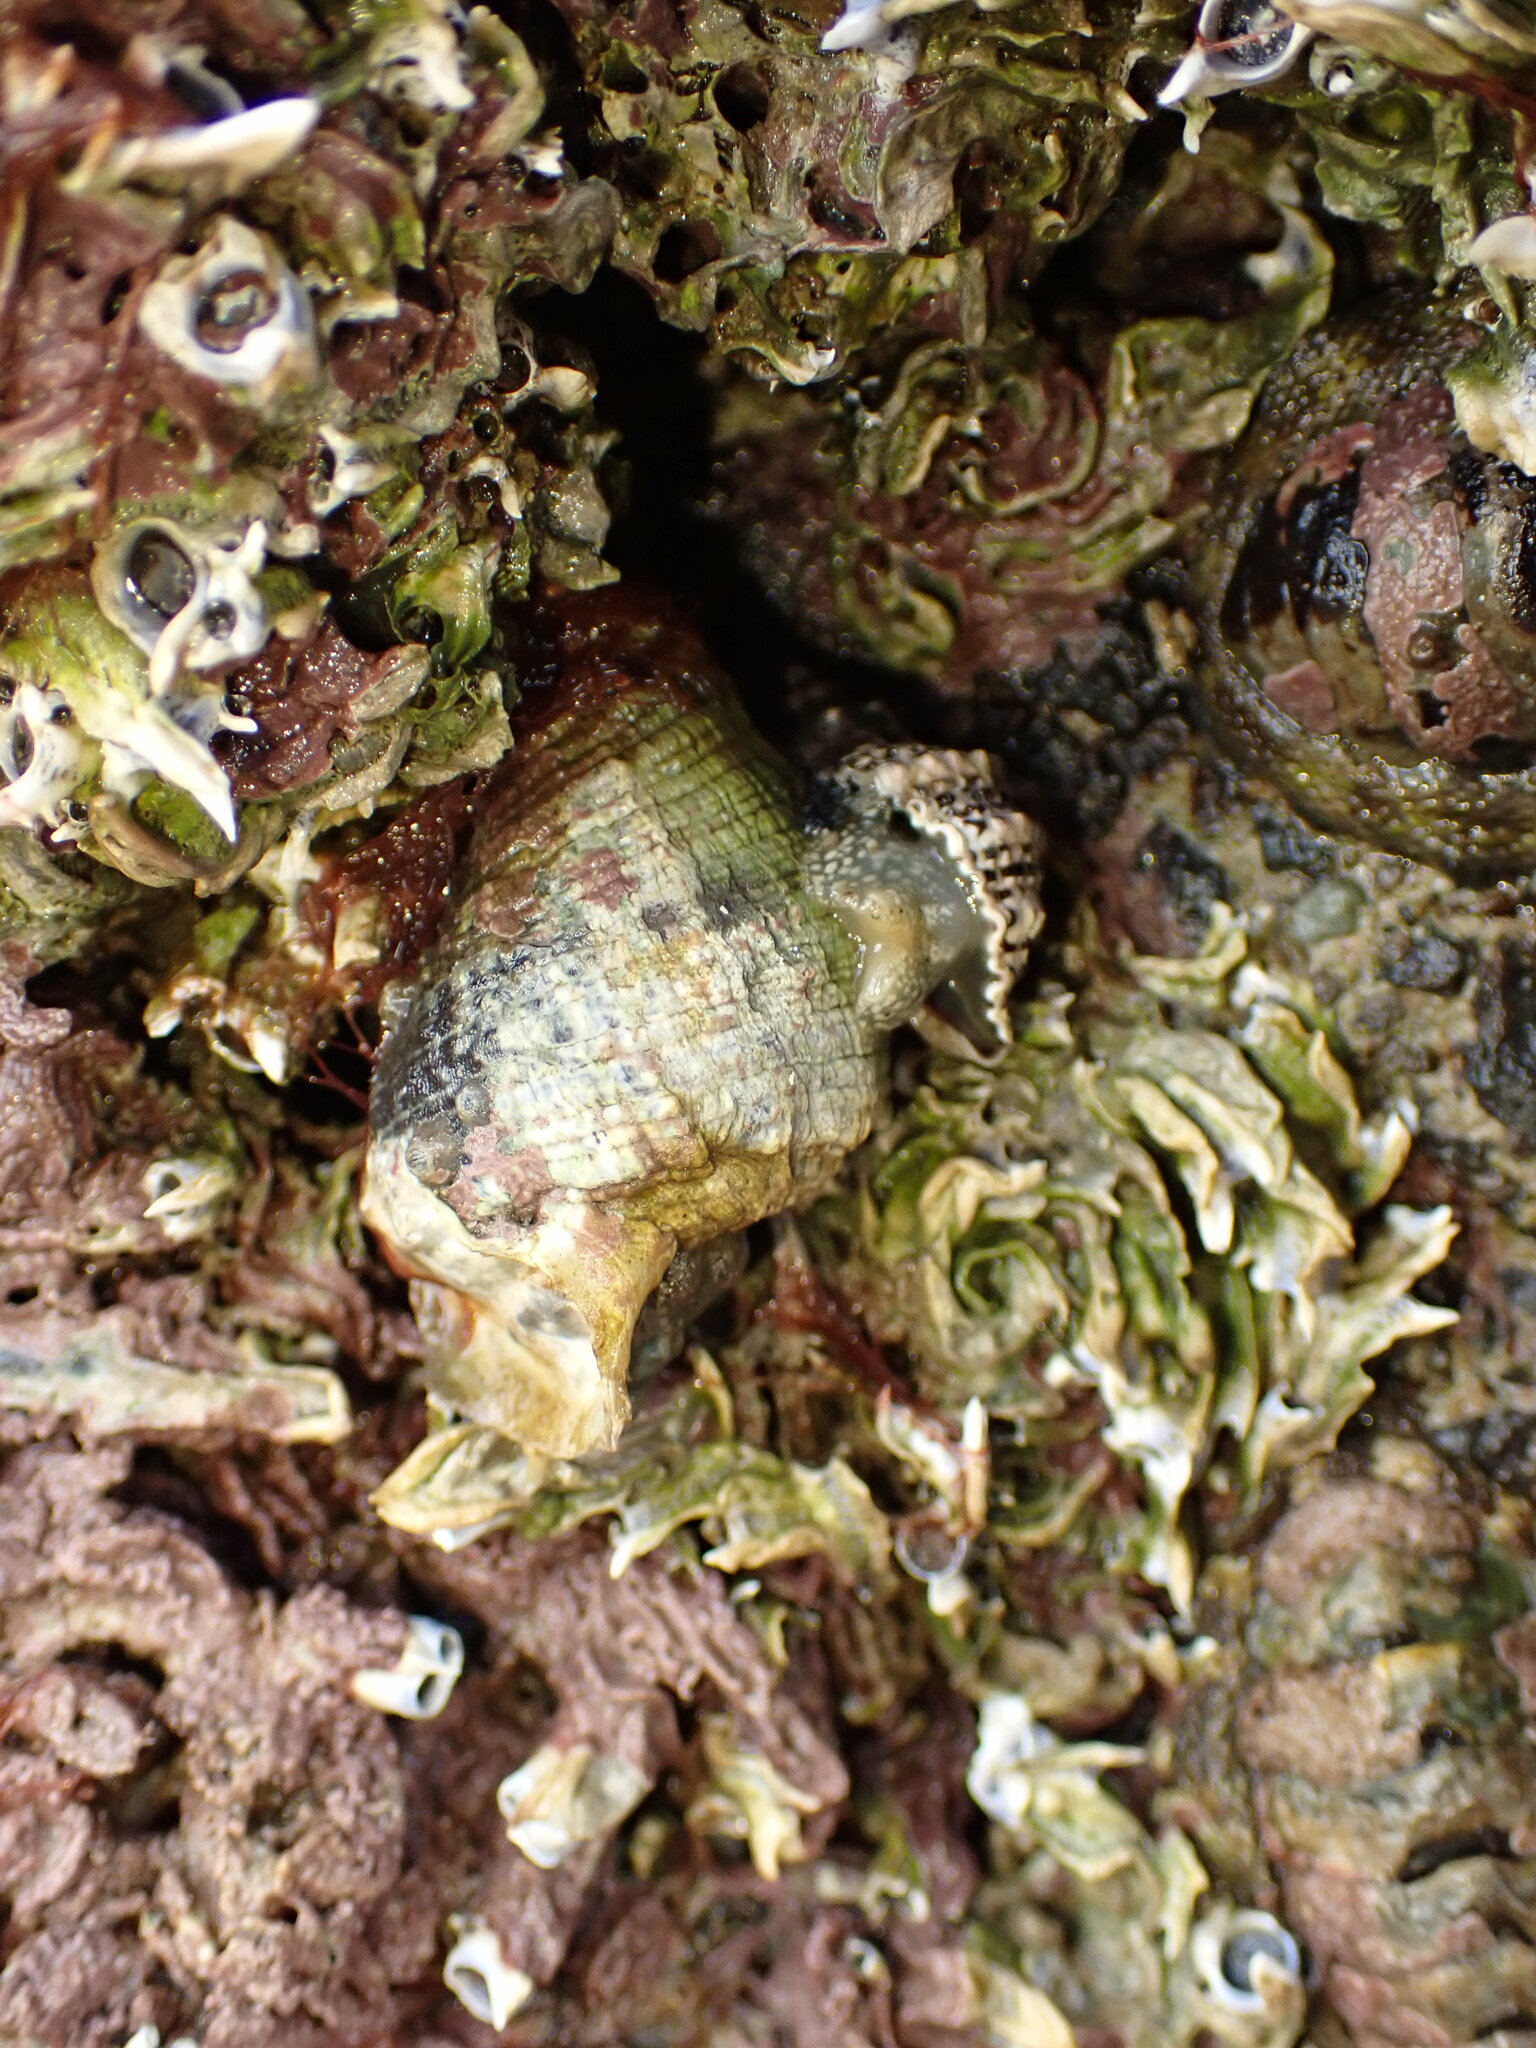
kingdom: Animalia
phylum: Mollusca
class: Gastropoda
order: Neogastropoda
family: Muricidae
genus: Haustrum
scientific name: Haustrum haustorium
